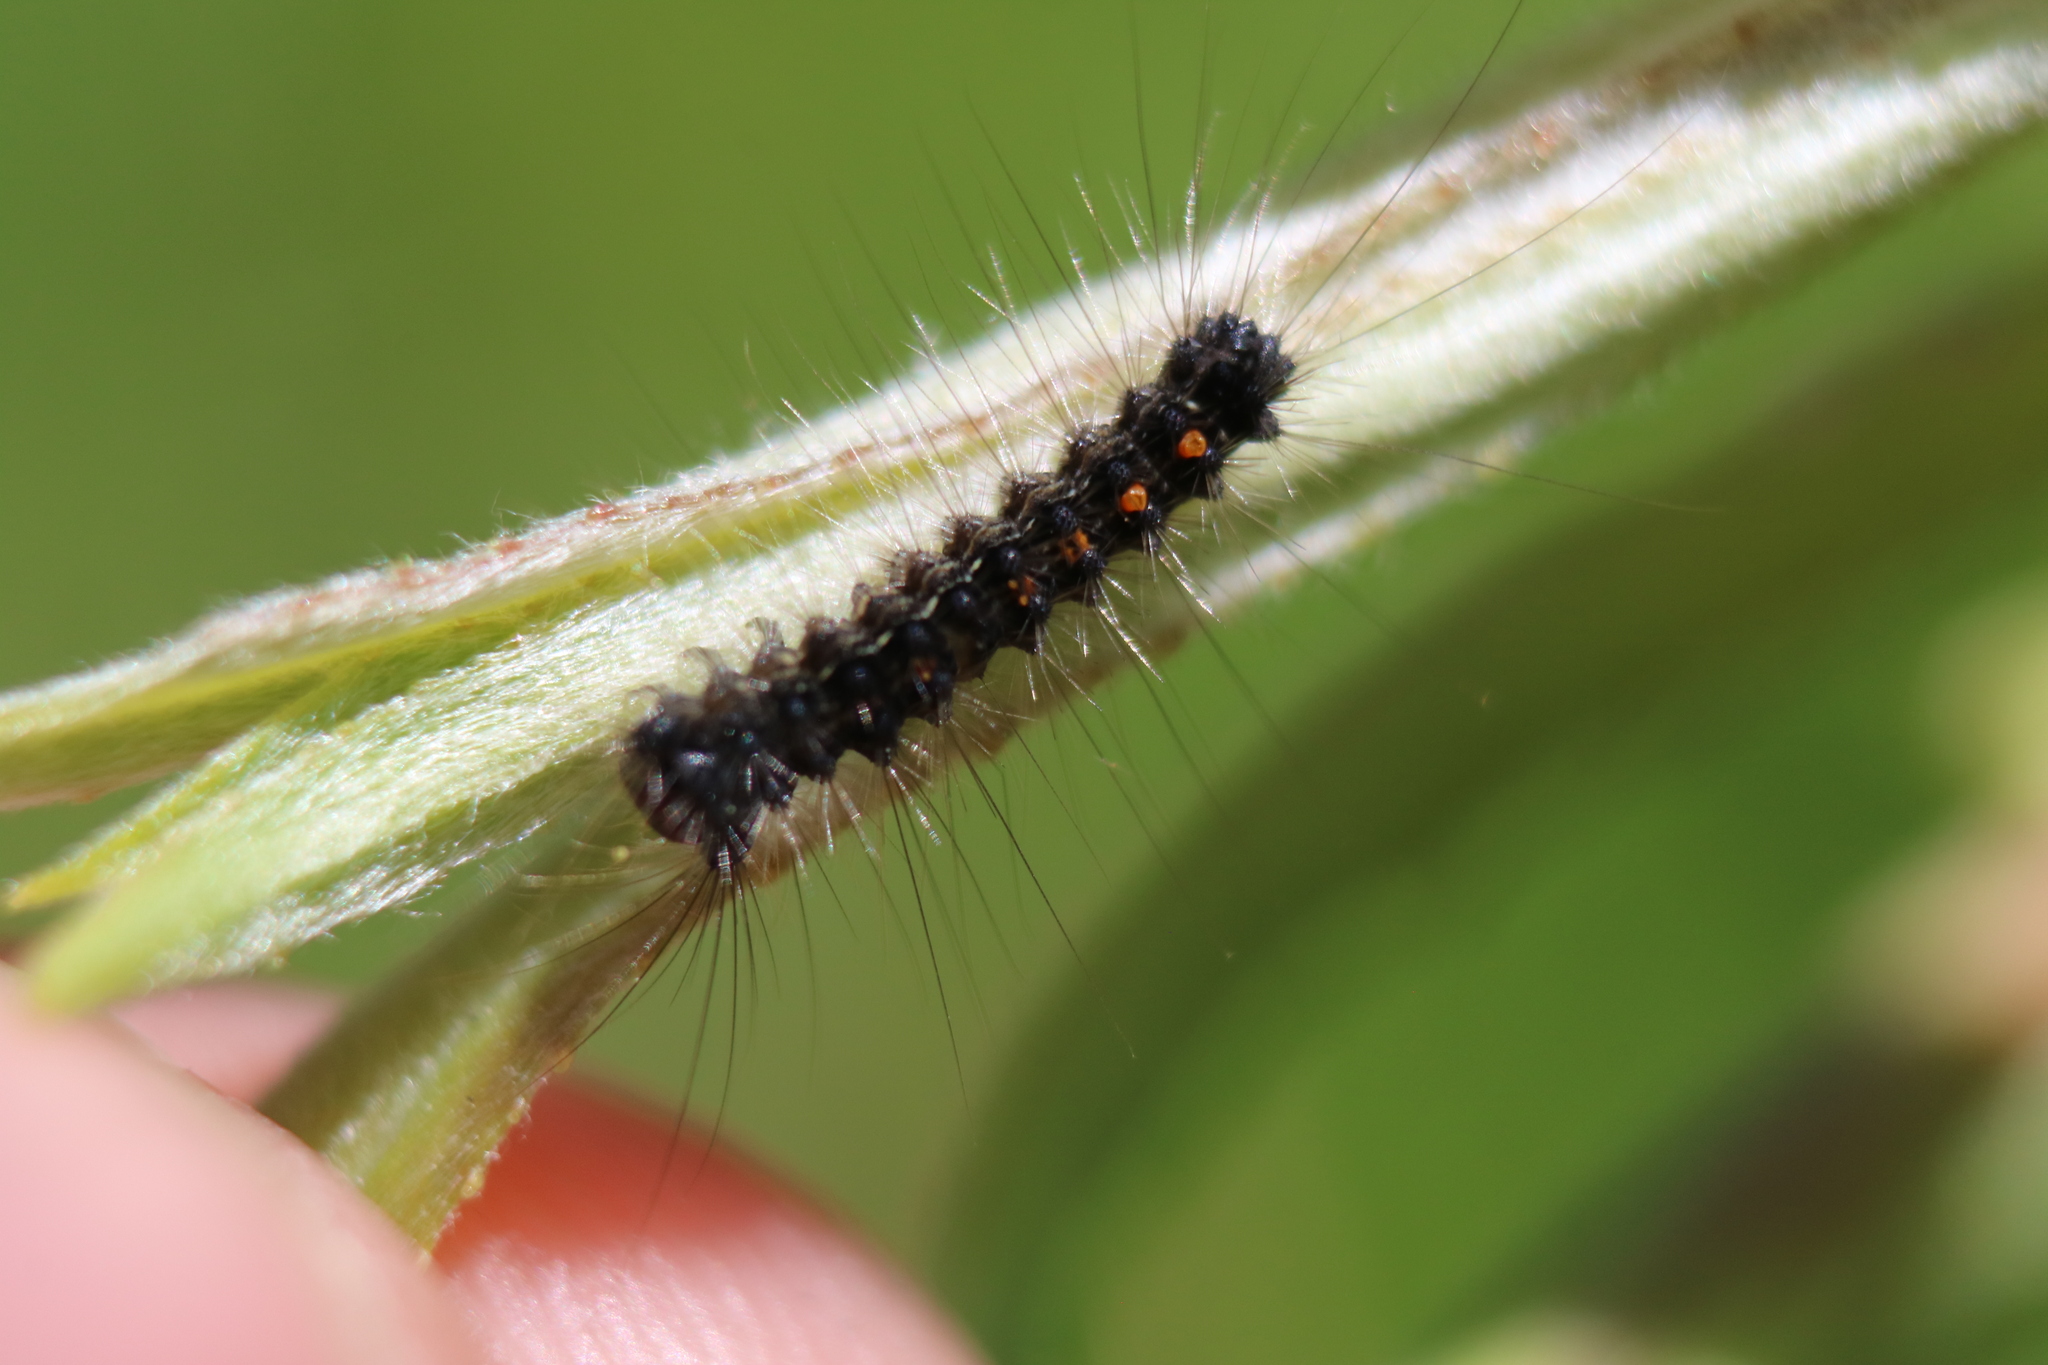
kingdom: Animalia
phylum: Arthropoda
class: Insecta
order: Lepidoptera
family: Erebidae
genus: Lymantria
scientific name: Lymantria dispar
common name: Gypsy moth
